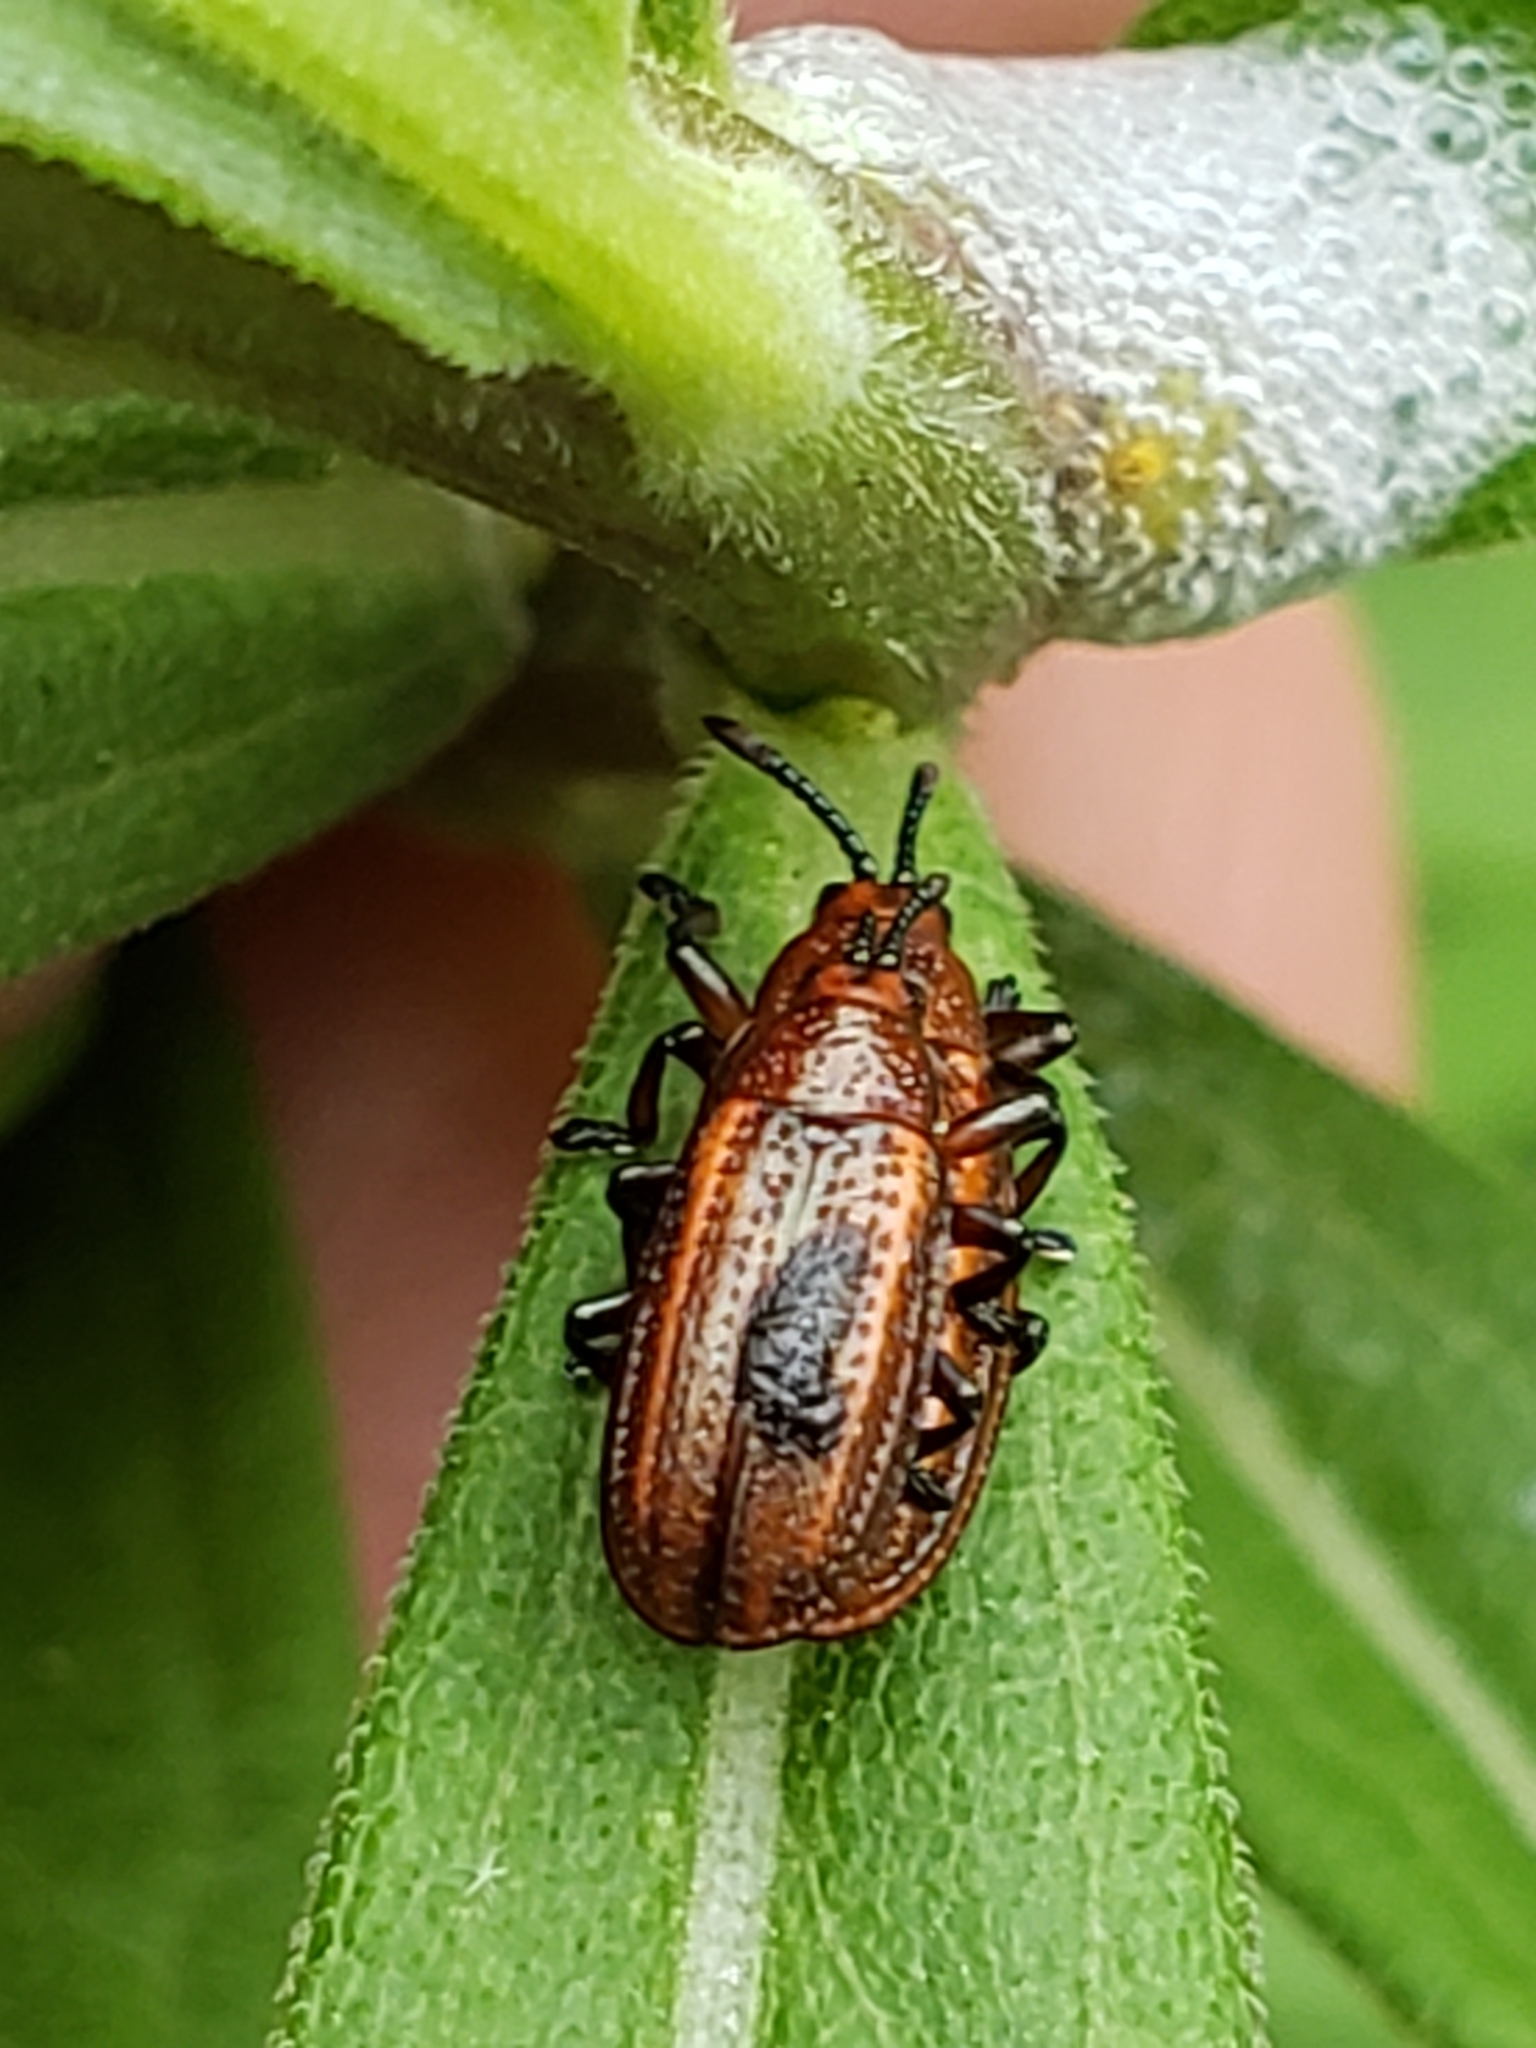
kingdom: Animalia
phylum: Arthropoda
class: Insecta
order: Coleoptera
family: Chrysomelidae
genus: Microrhopala
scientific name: Microrhopala vittata
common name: Goldenrod leaf miner beetle
